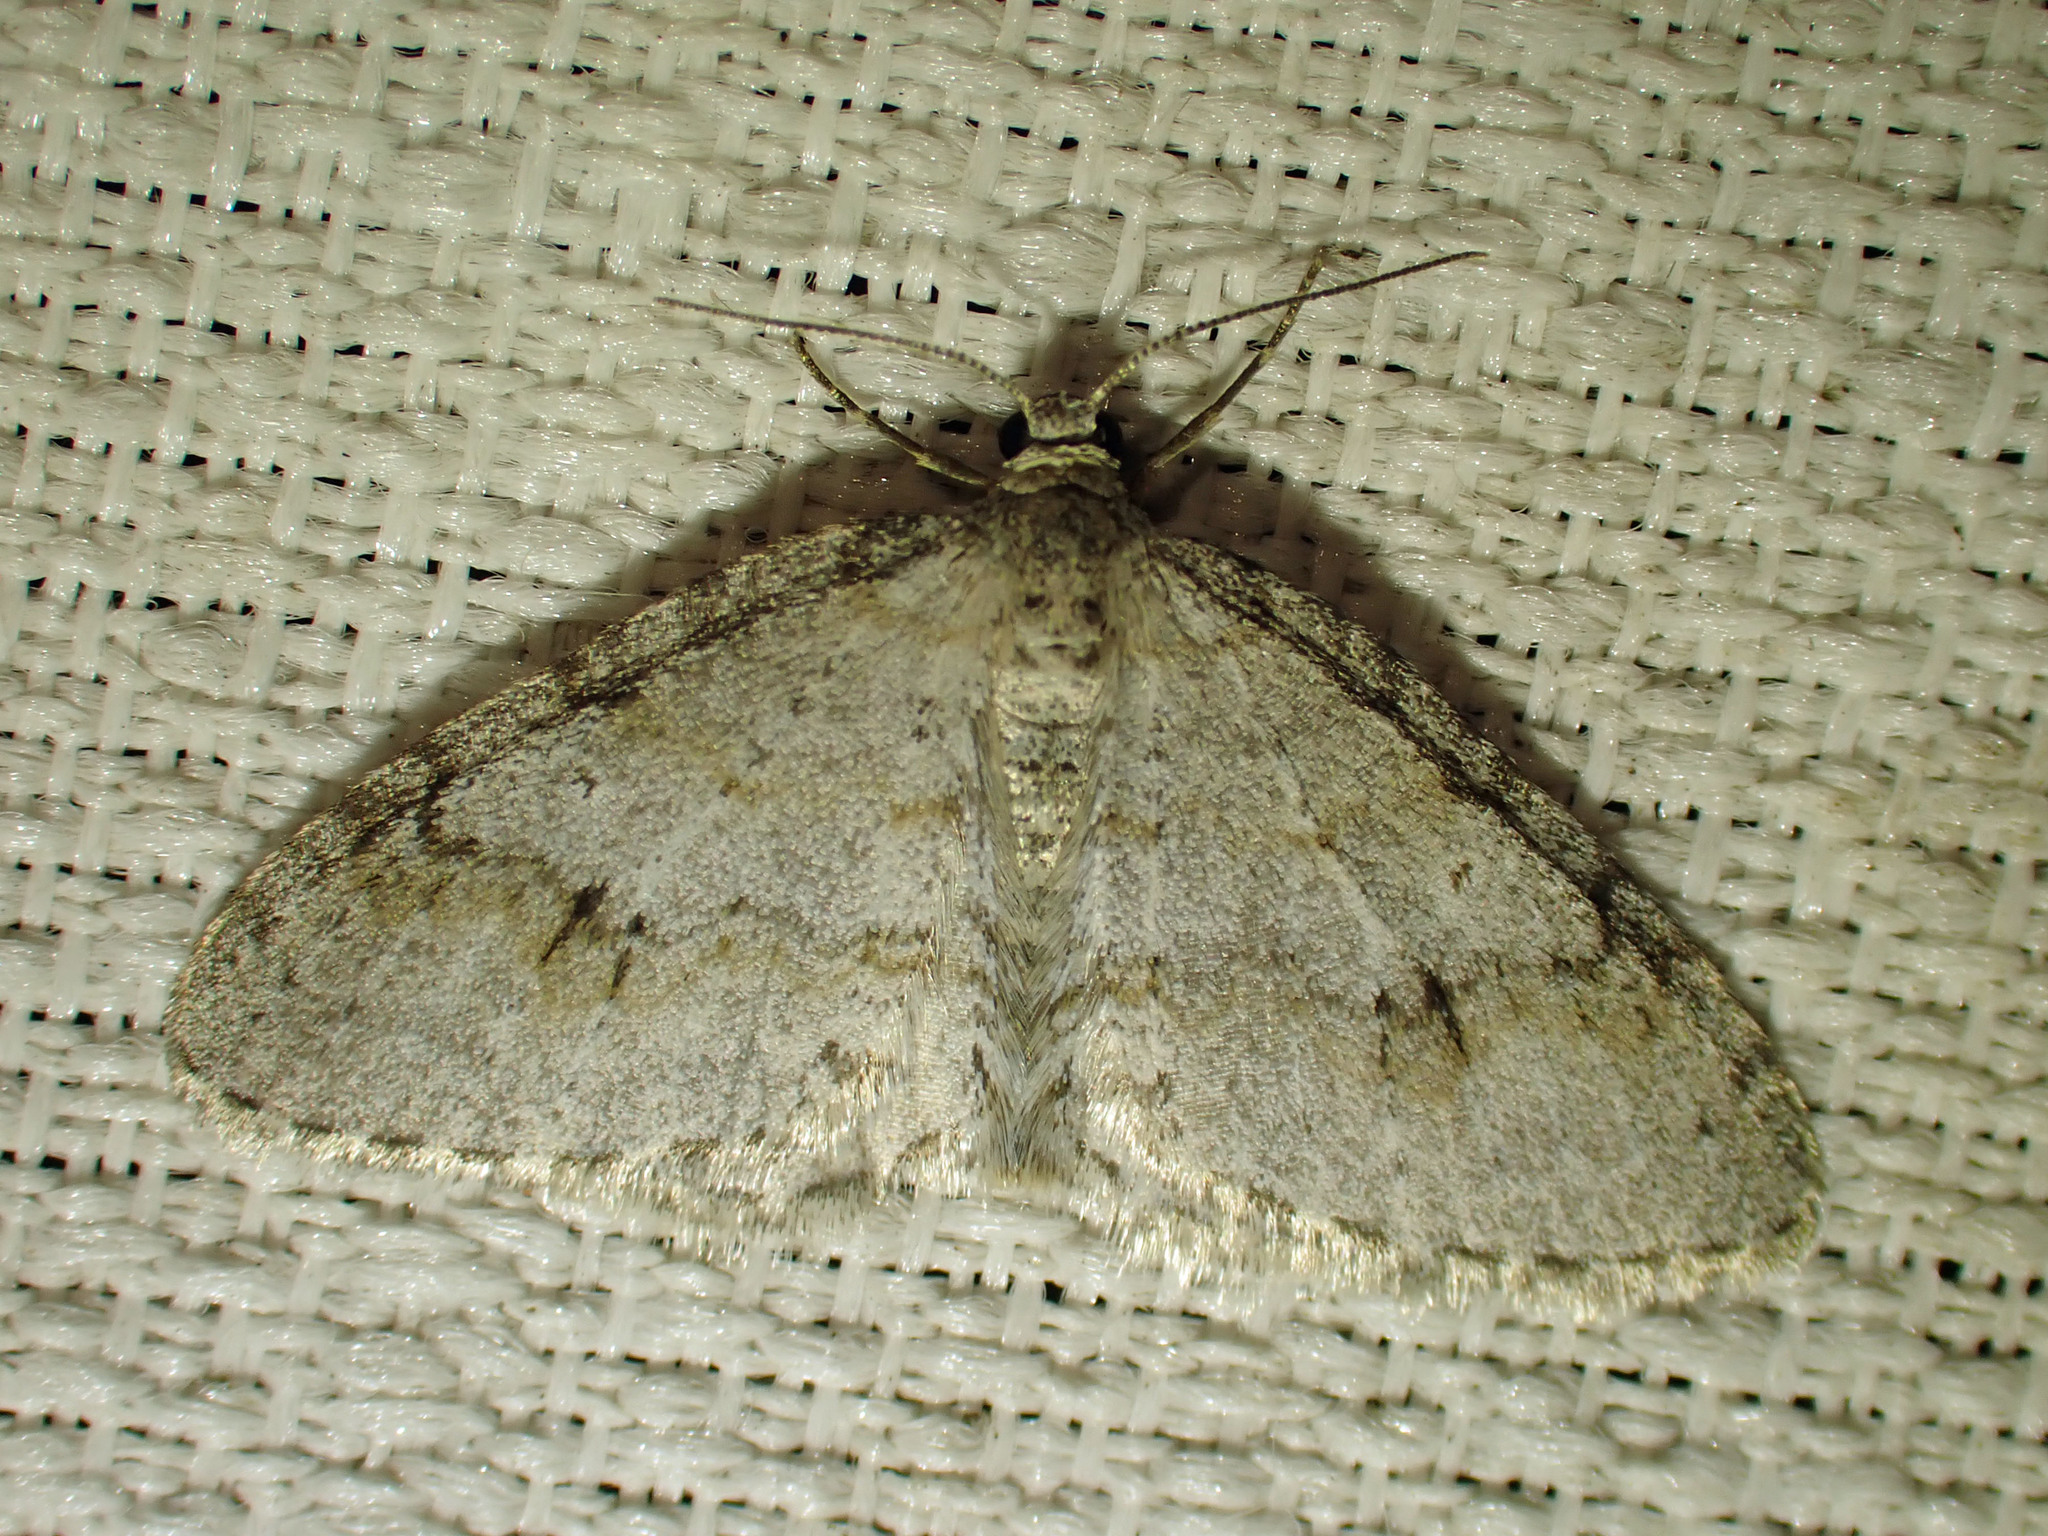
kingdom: Animalia
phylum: Arthropoda
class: Insecta
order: Lepidoptera
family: Geometridae
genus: Venusia
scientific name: Venusia comptaria
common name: Brown-shaded carpet
